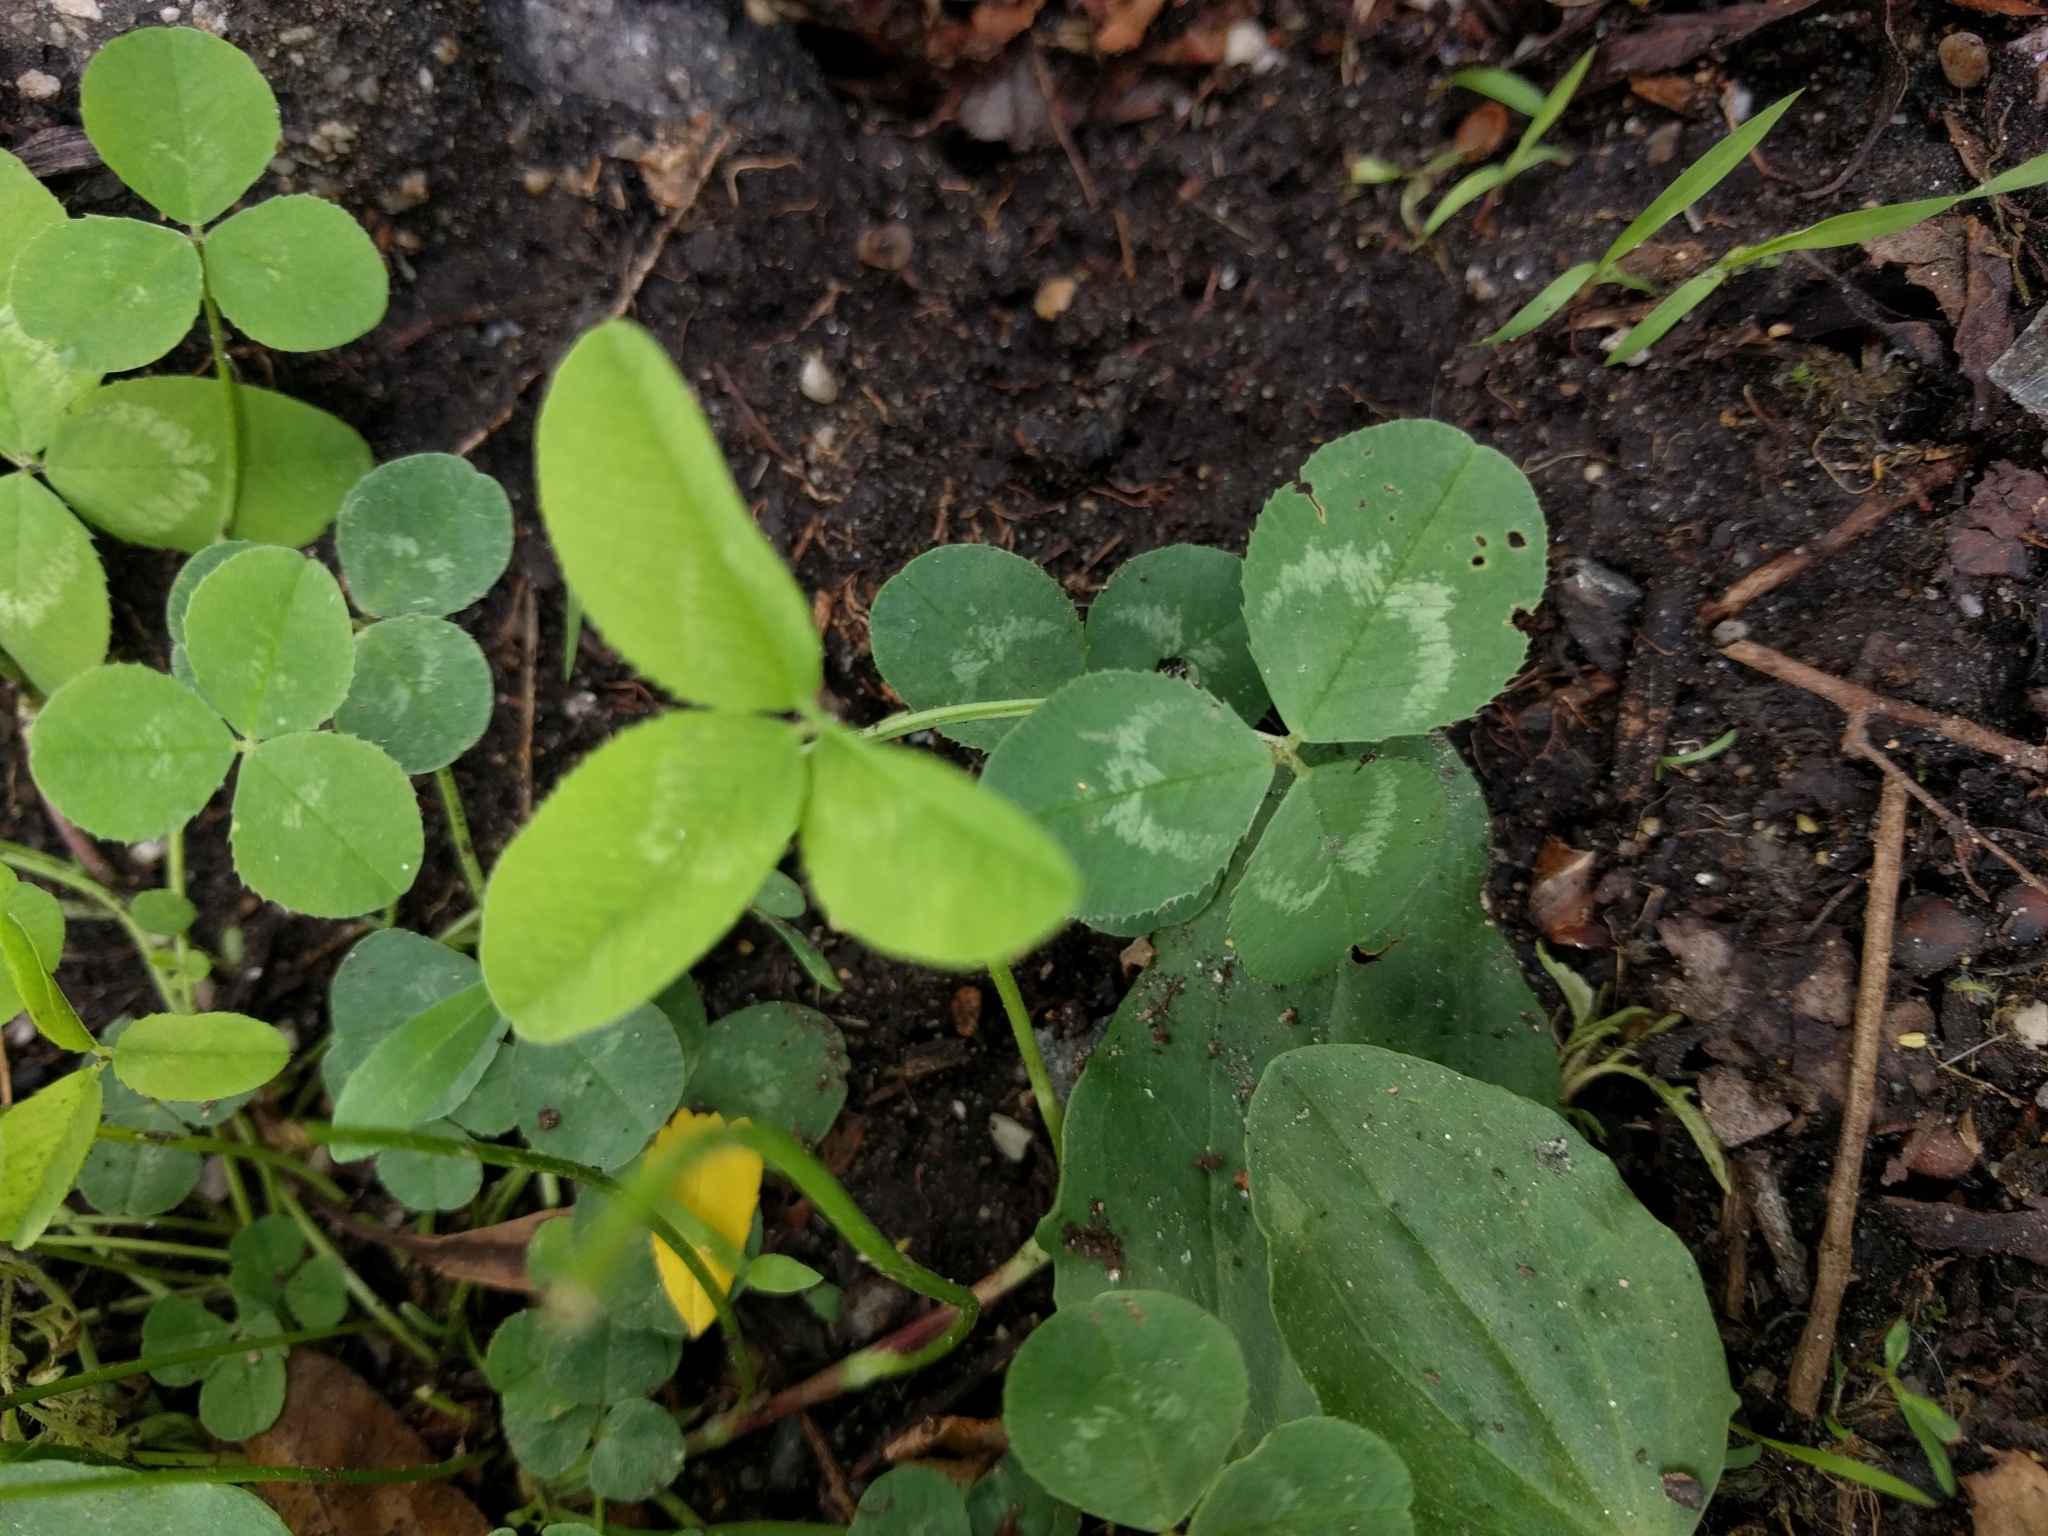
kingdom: Plantae
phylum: Tracheophyta
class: Magnoliopsida
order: Fabales
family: Fabaceae
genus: Trifolium
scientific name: Trifolium pratense
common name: Red clover
